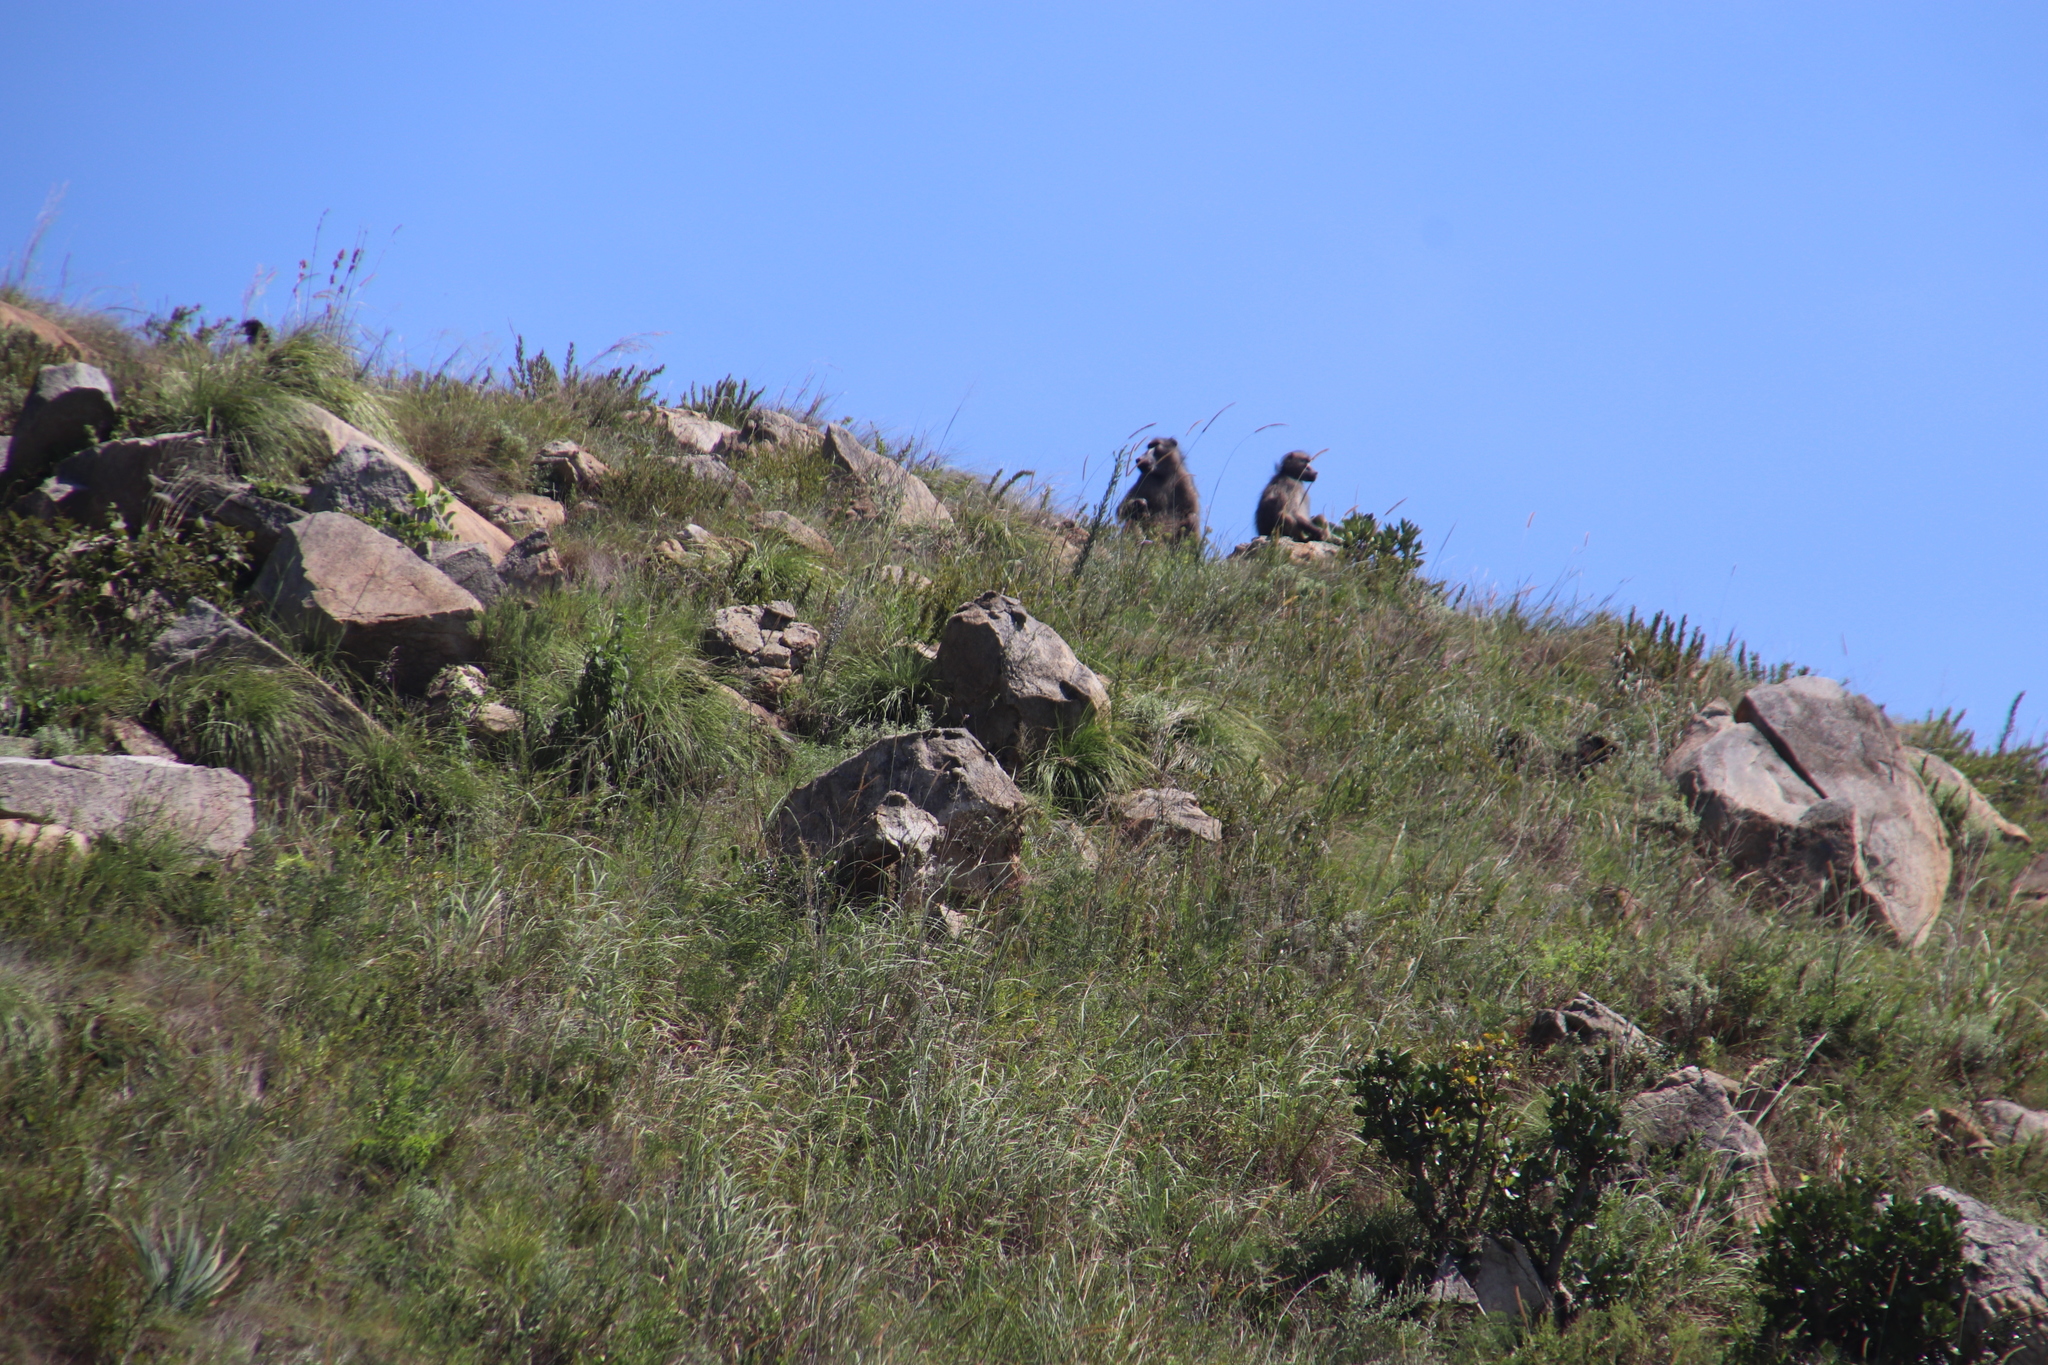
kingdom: Animalia
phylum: Chordata
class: Mammalia
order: Primates
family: Cercopithecidae
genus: Papio
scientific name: Papio ursinus
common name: Chacma baboon
